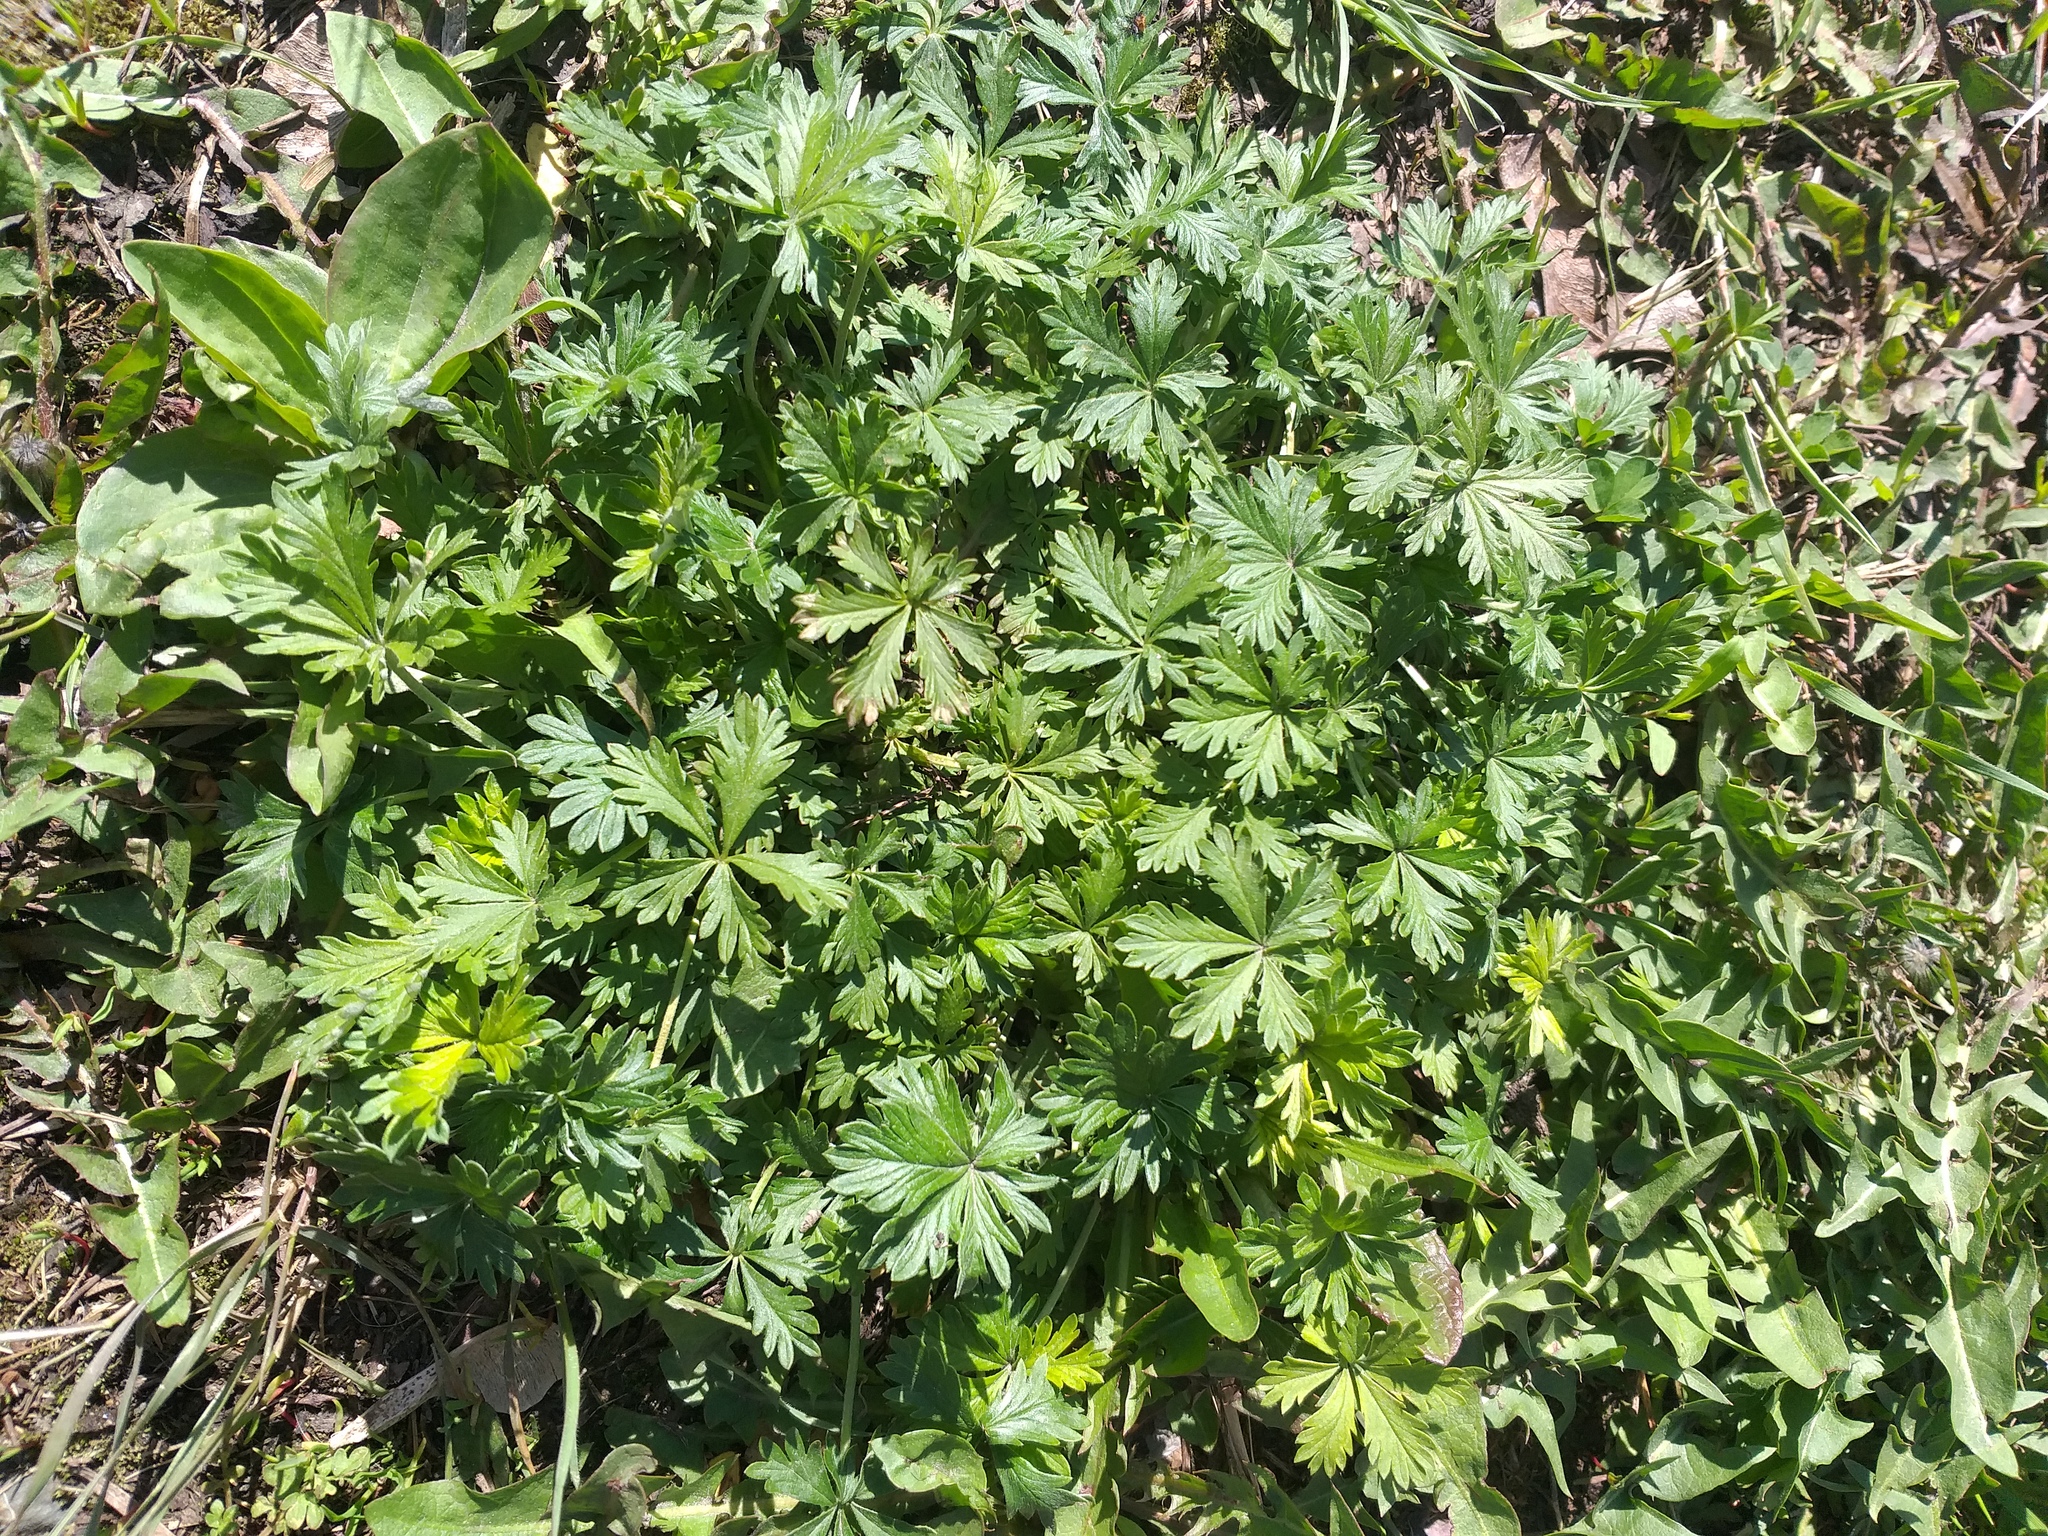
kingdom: Plantae
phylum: Tracheophyta
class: Magnoliopsida
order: Rosales
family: Rosaceae
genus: Potentilla
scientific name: Potentilla argentea
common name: Hoary cinquefoil
